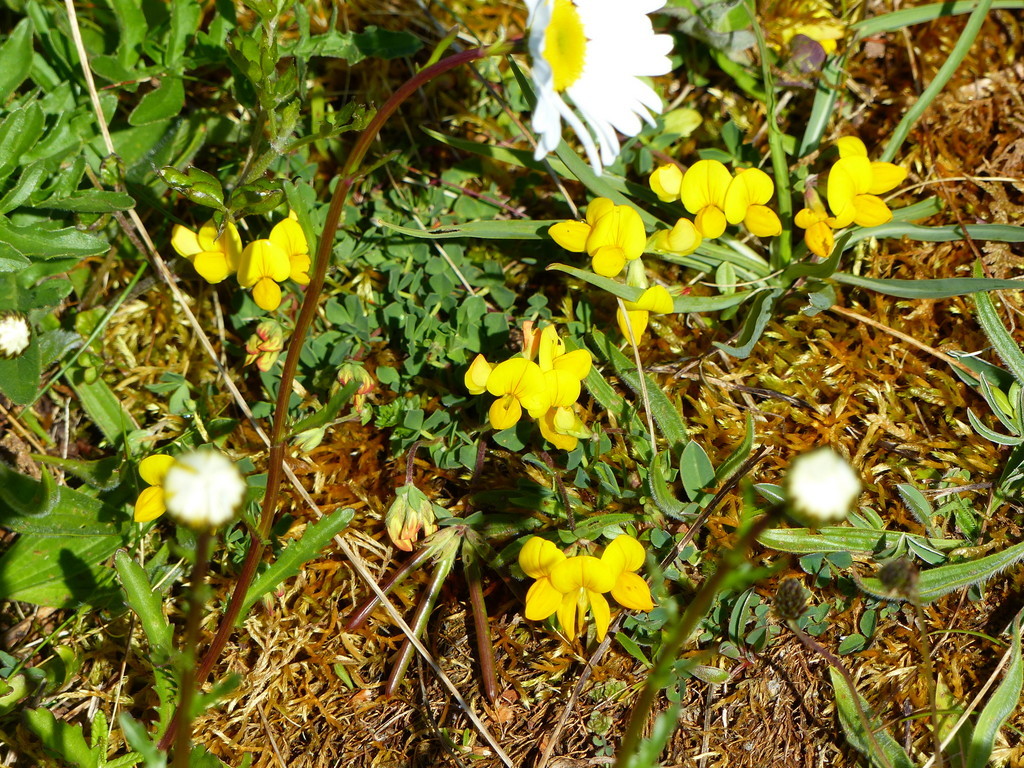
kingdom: Plantae
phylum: Tracheophyta
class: Magnoliopsida
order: Fabales
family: Fabaceae
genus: Lotus
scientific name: Lotus corniculatus
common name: Common bird's-foot-trefoil
